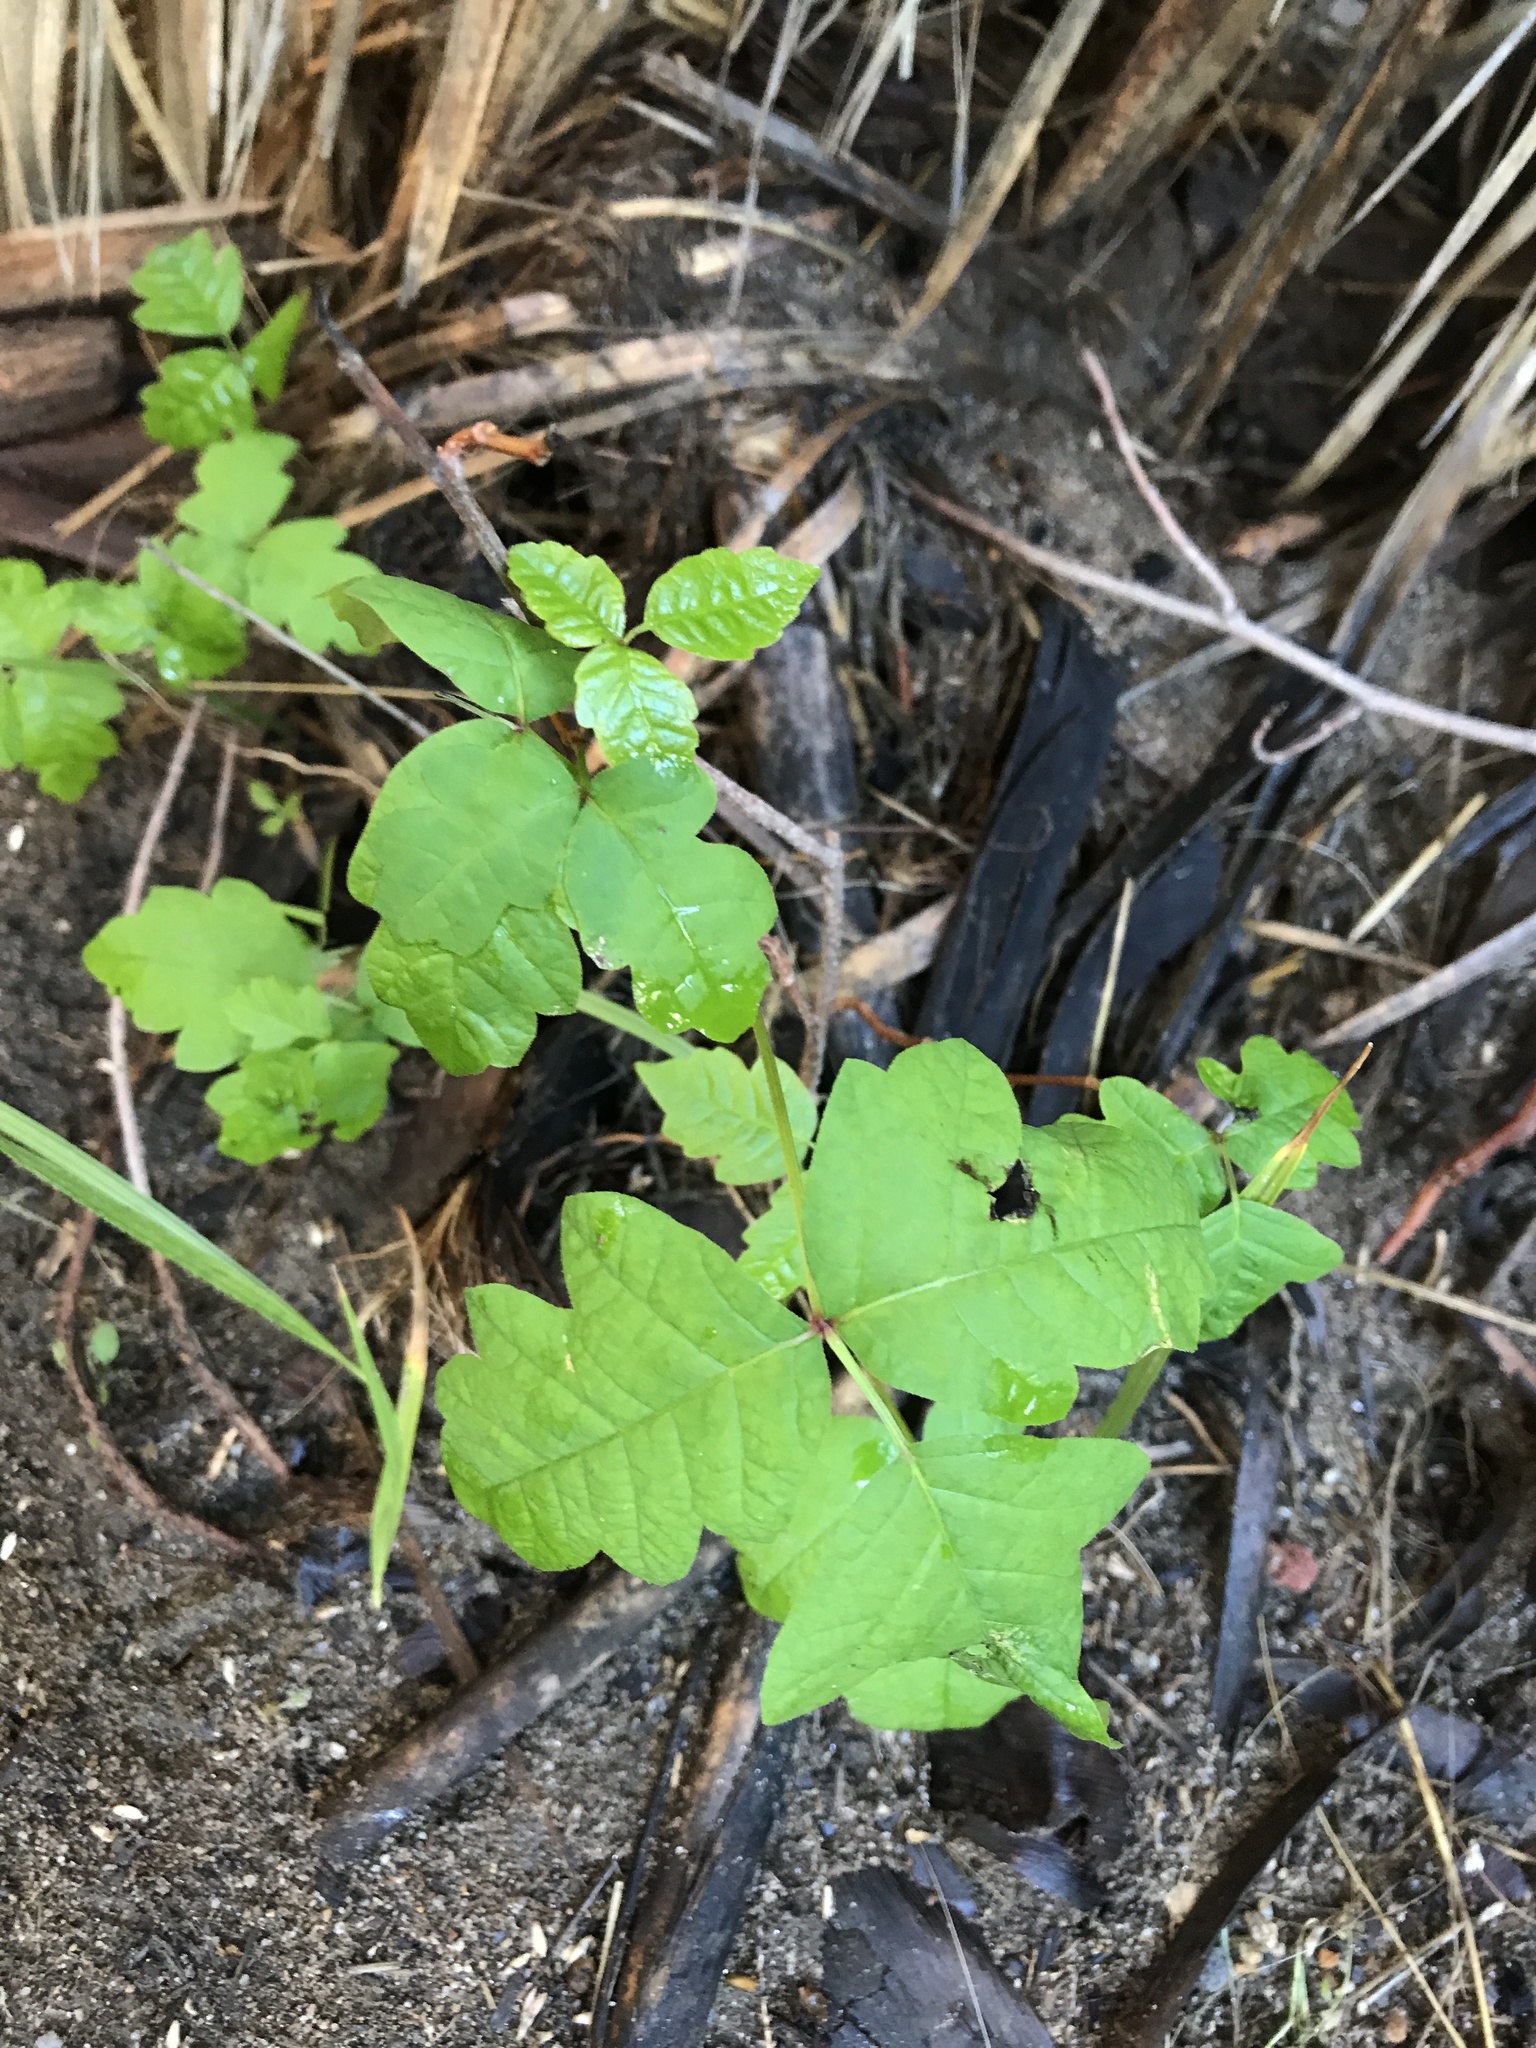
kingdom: Plantae
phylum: Tracheophyta
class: Magnoliopsida
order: Sapindales
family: Anacardiaceae
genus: Toxicodendron
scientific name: Toxicodendron diversilobum
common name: Pacific poison-oak
